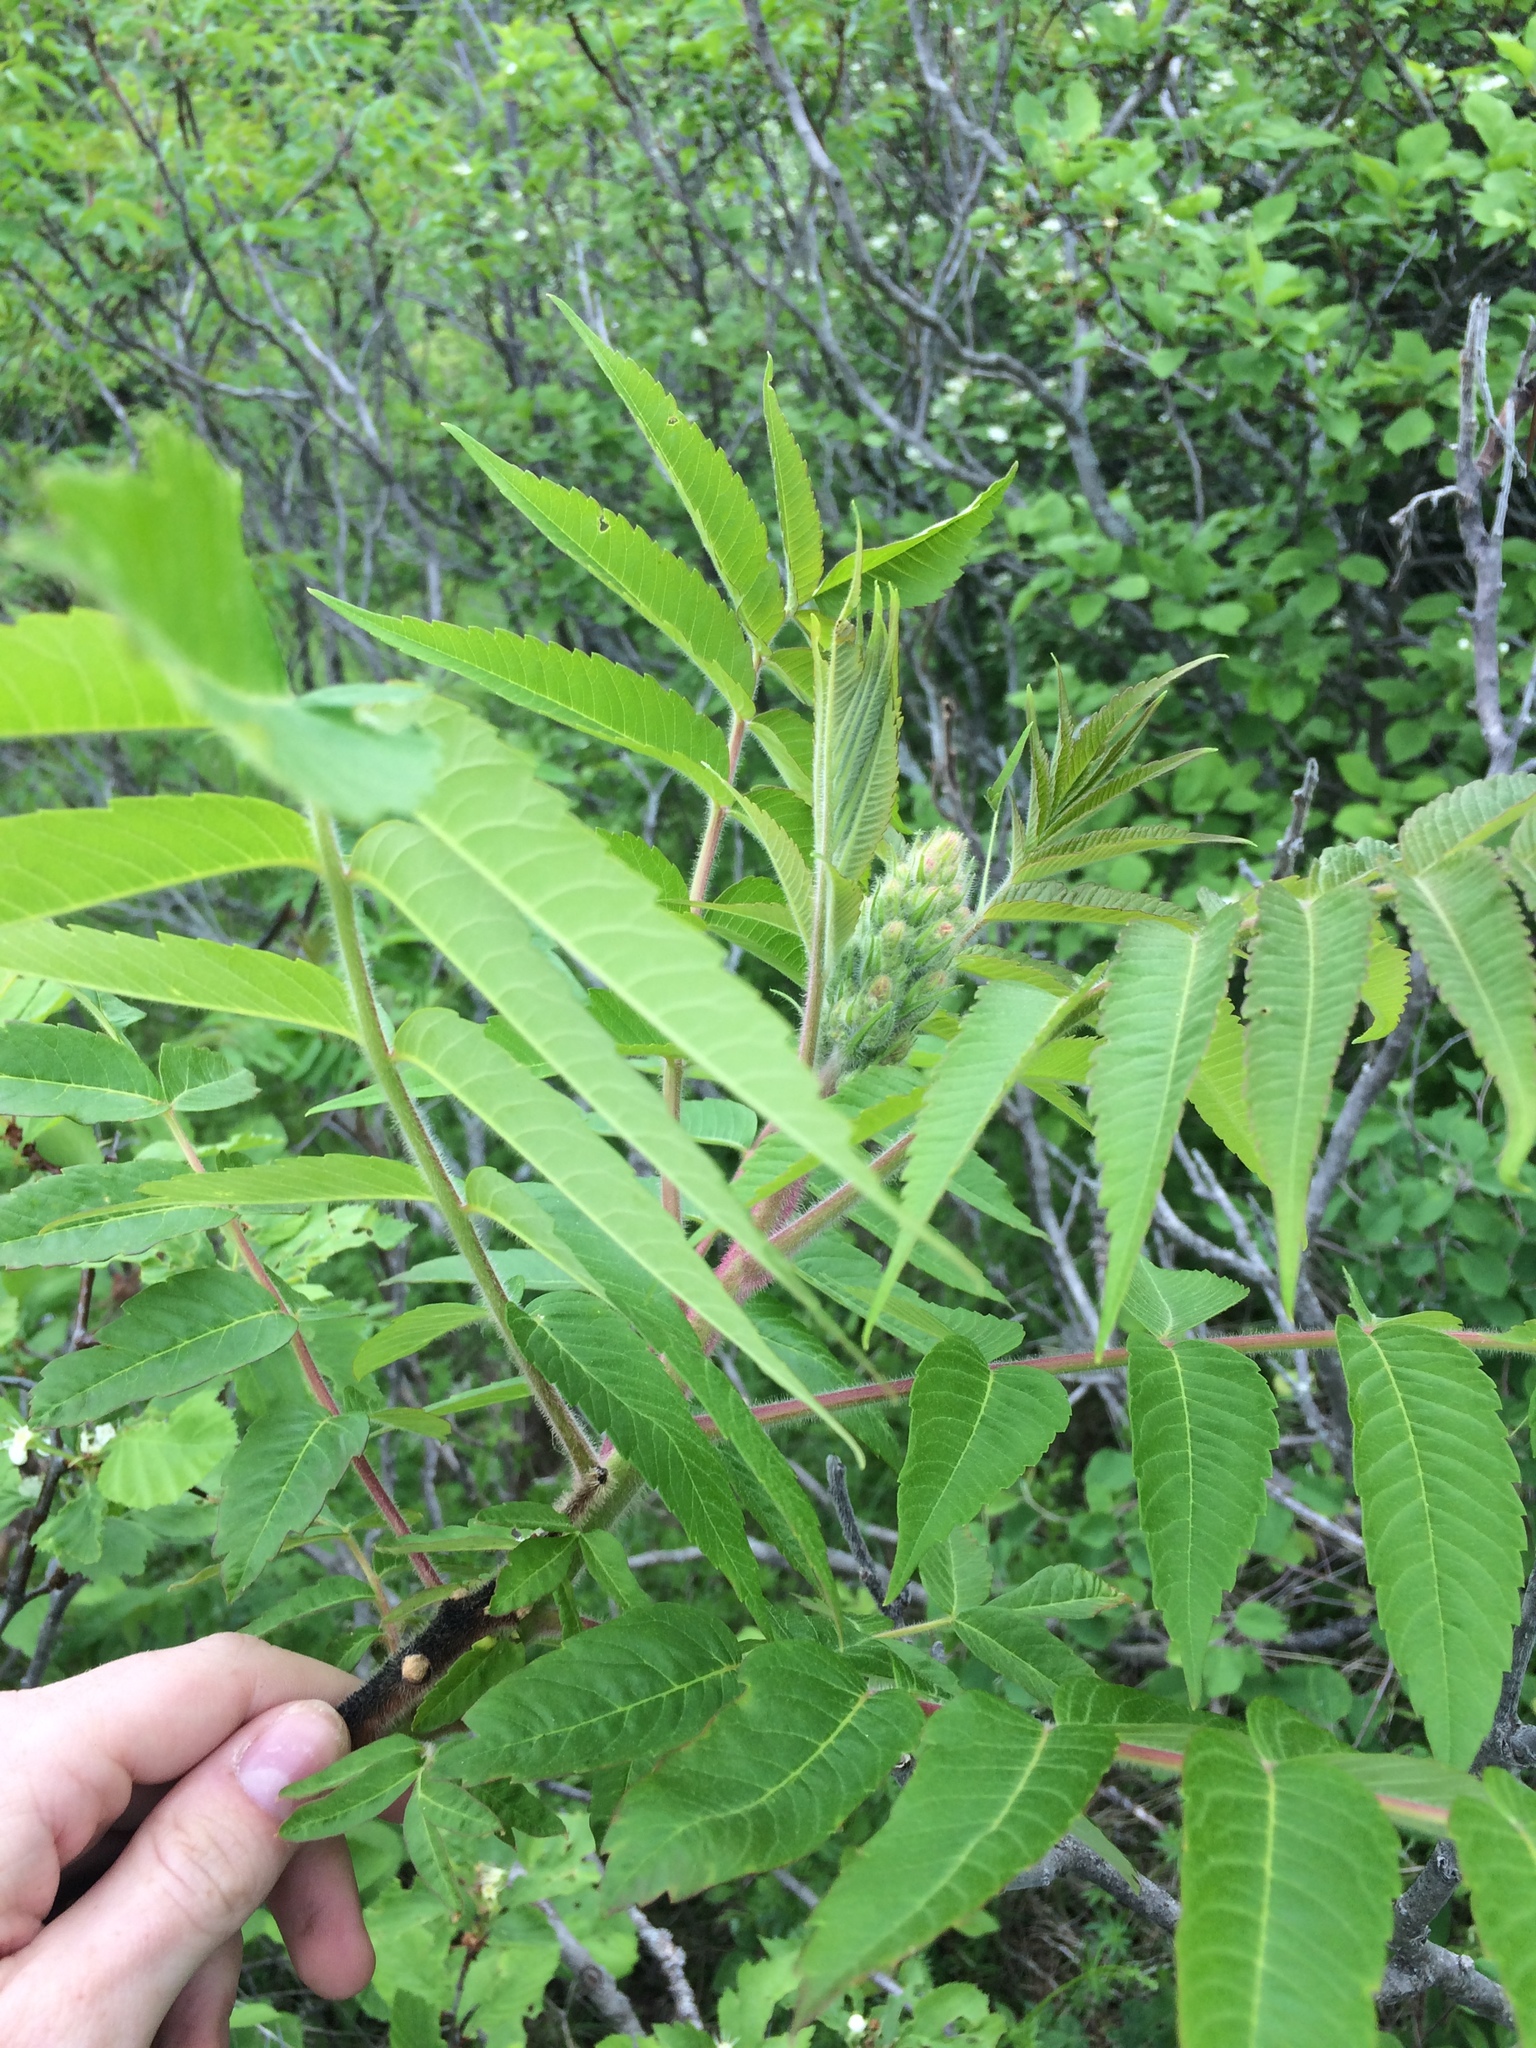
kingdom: Plantae
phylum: Tracheophyta
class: Magnoliopsida
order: Sapindales
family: Anacardiaceae
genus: Rhus
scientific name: Rhus typhina
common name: Staghorn sumac
